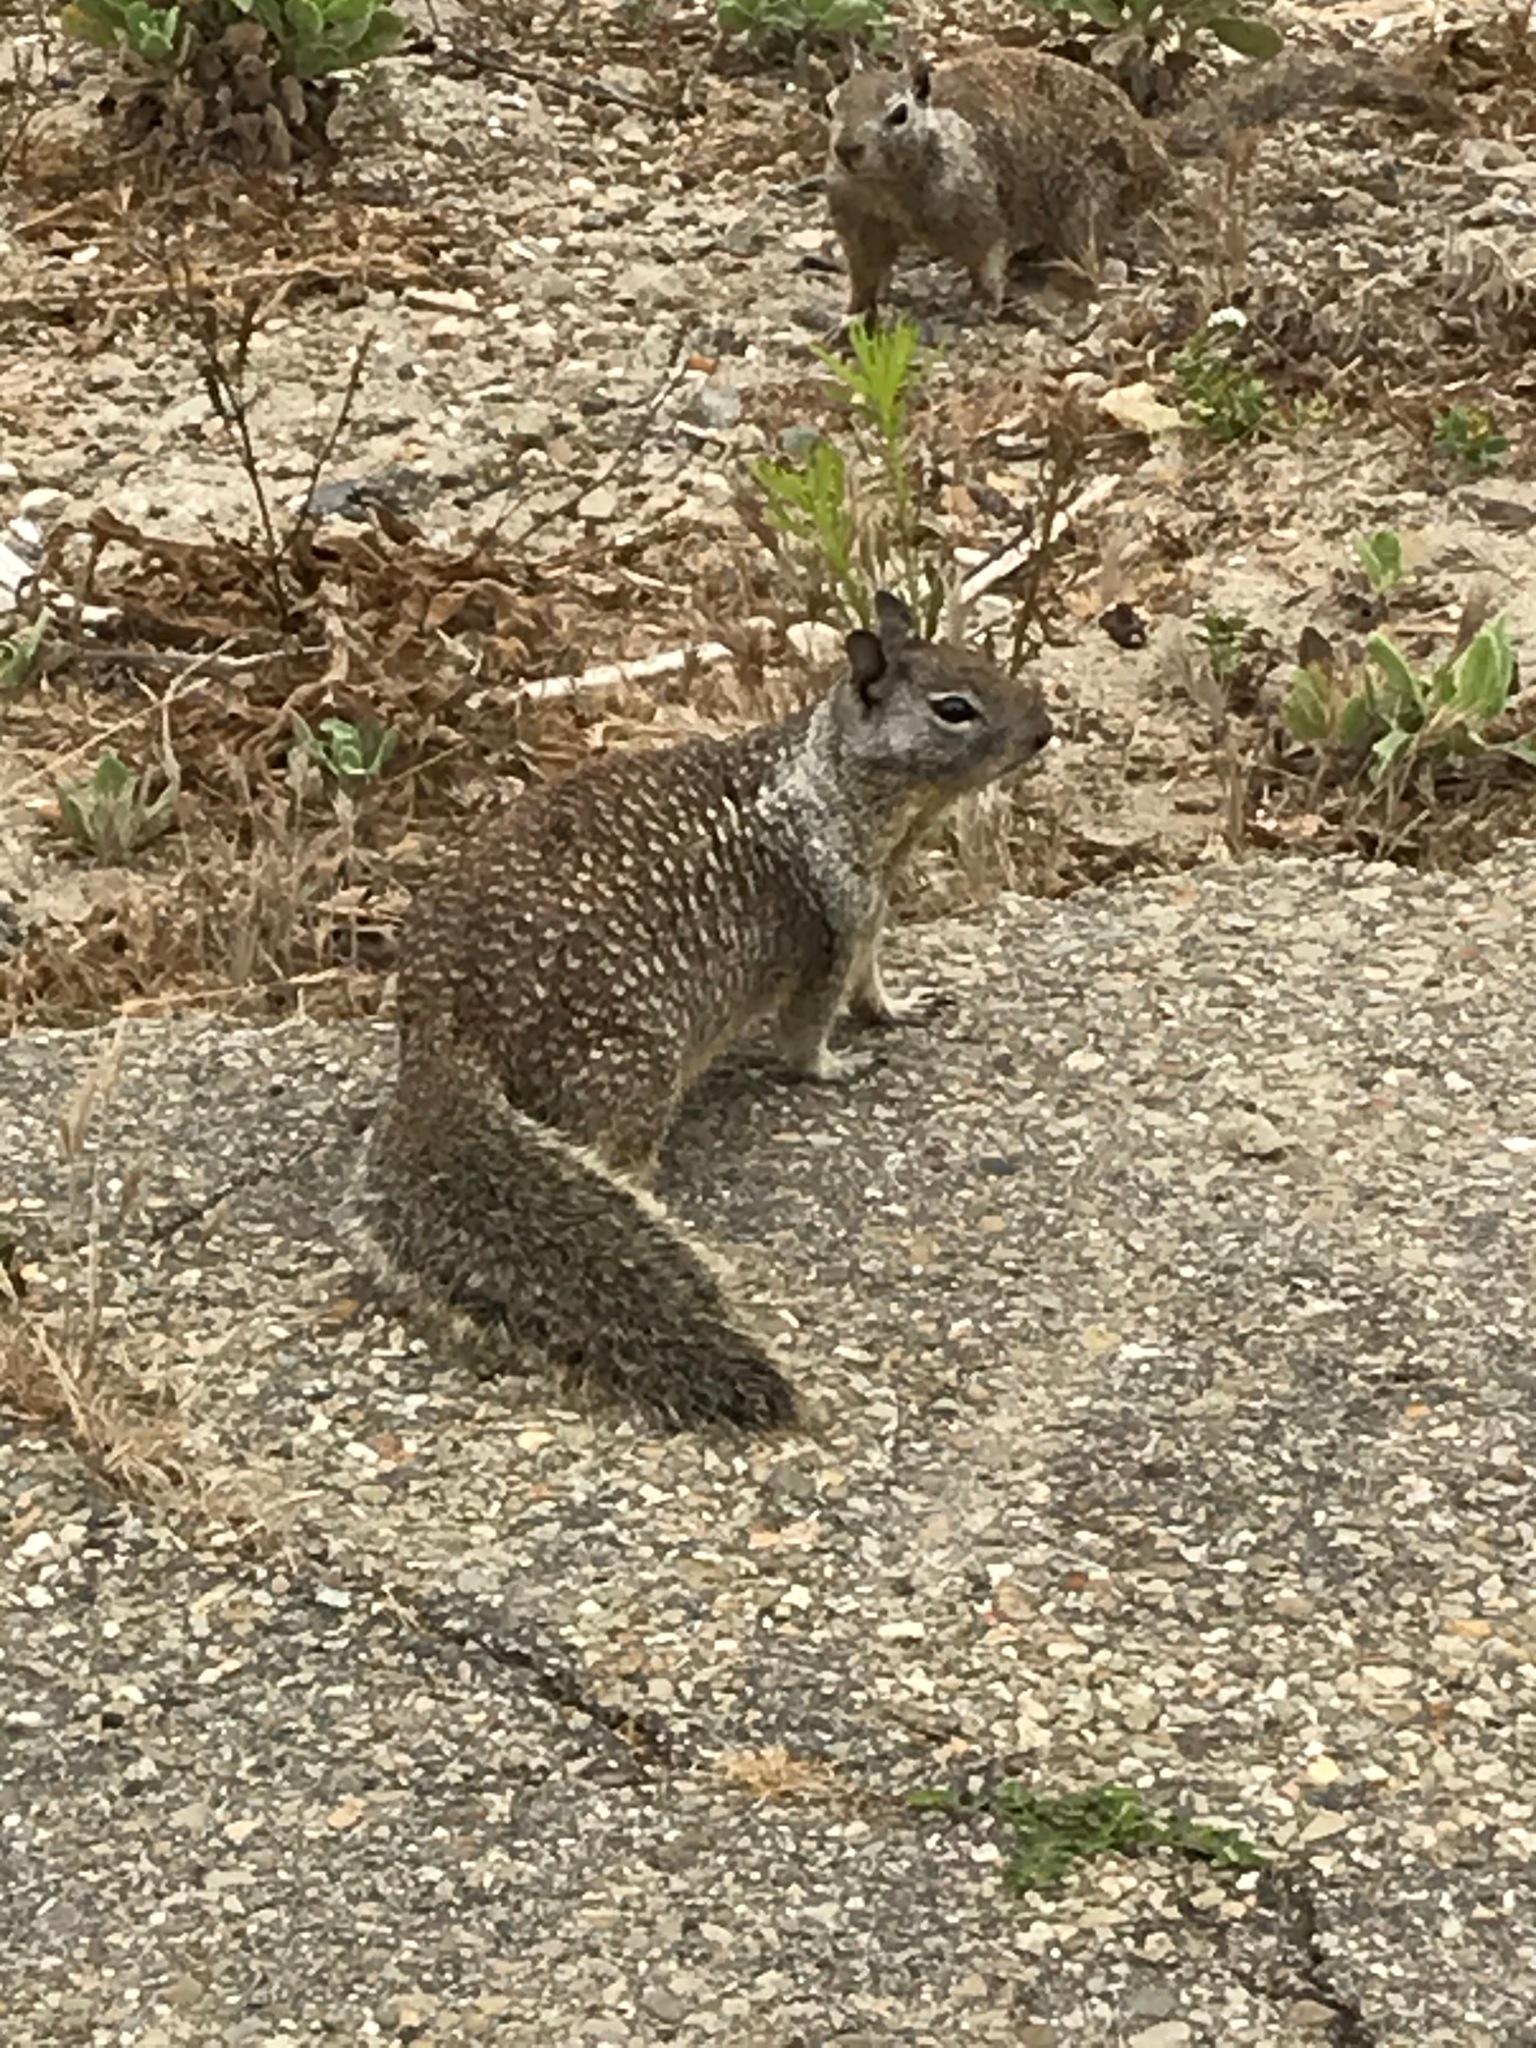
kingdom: Animalia
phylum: Chordata
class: Mammalia
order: Rodentia
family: Sciuridae
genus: Otospermophilus
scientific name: Otospermophilus beecheyi
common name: California ground squirrel
